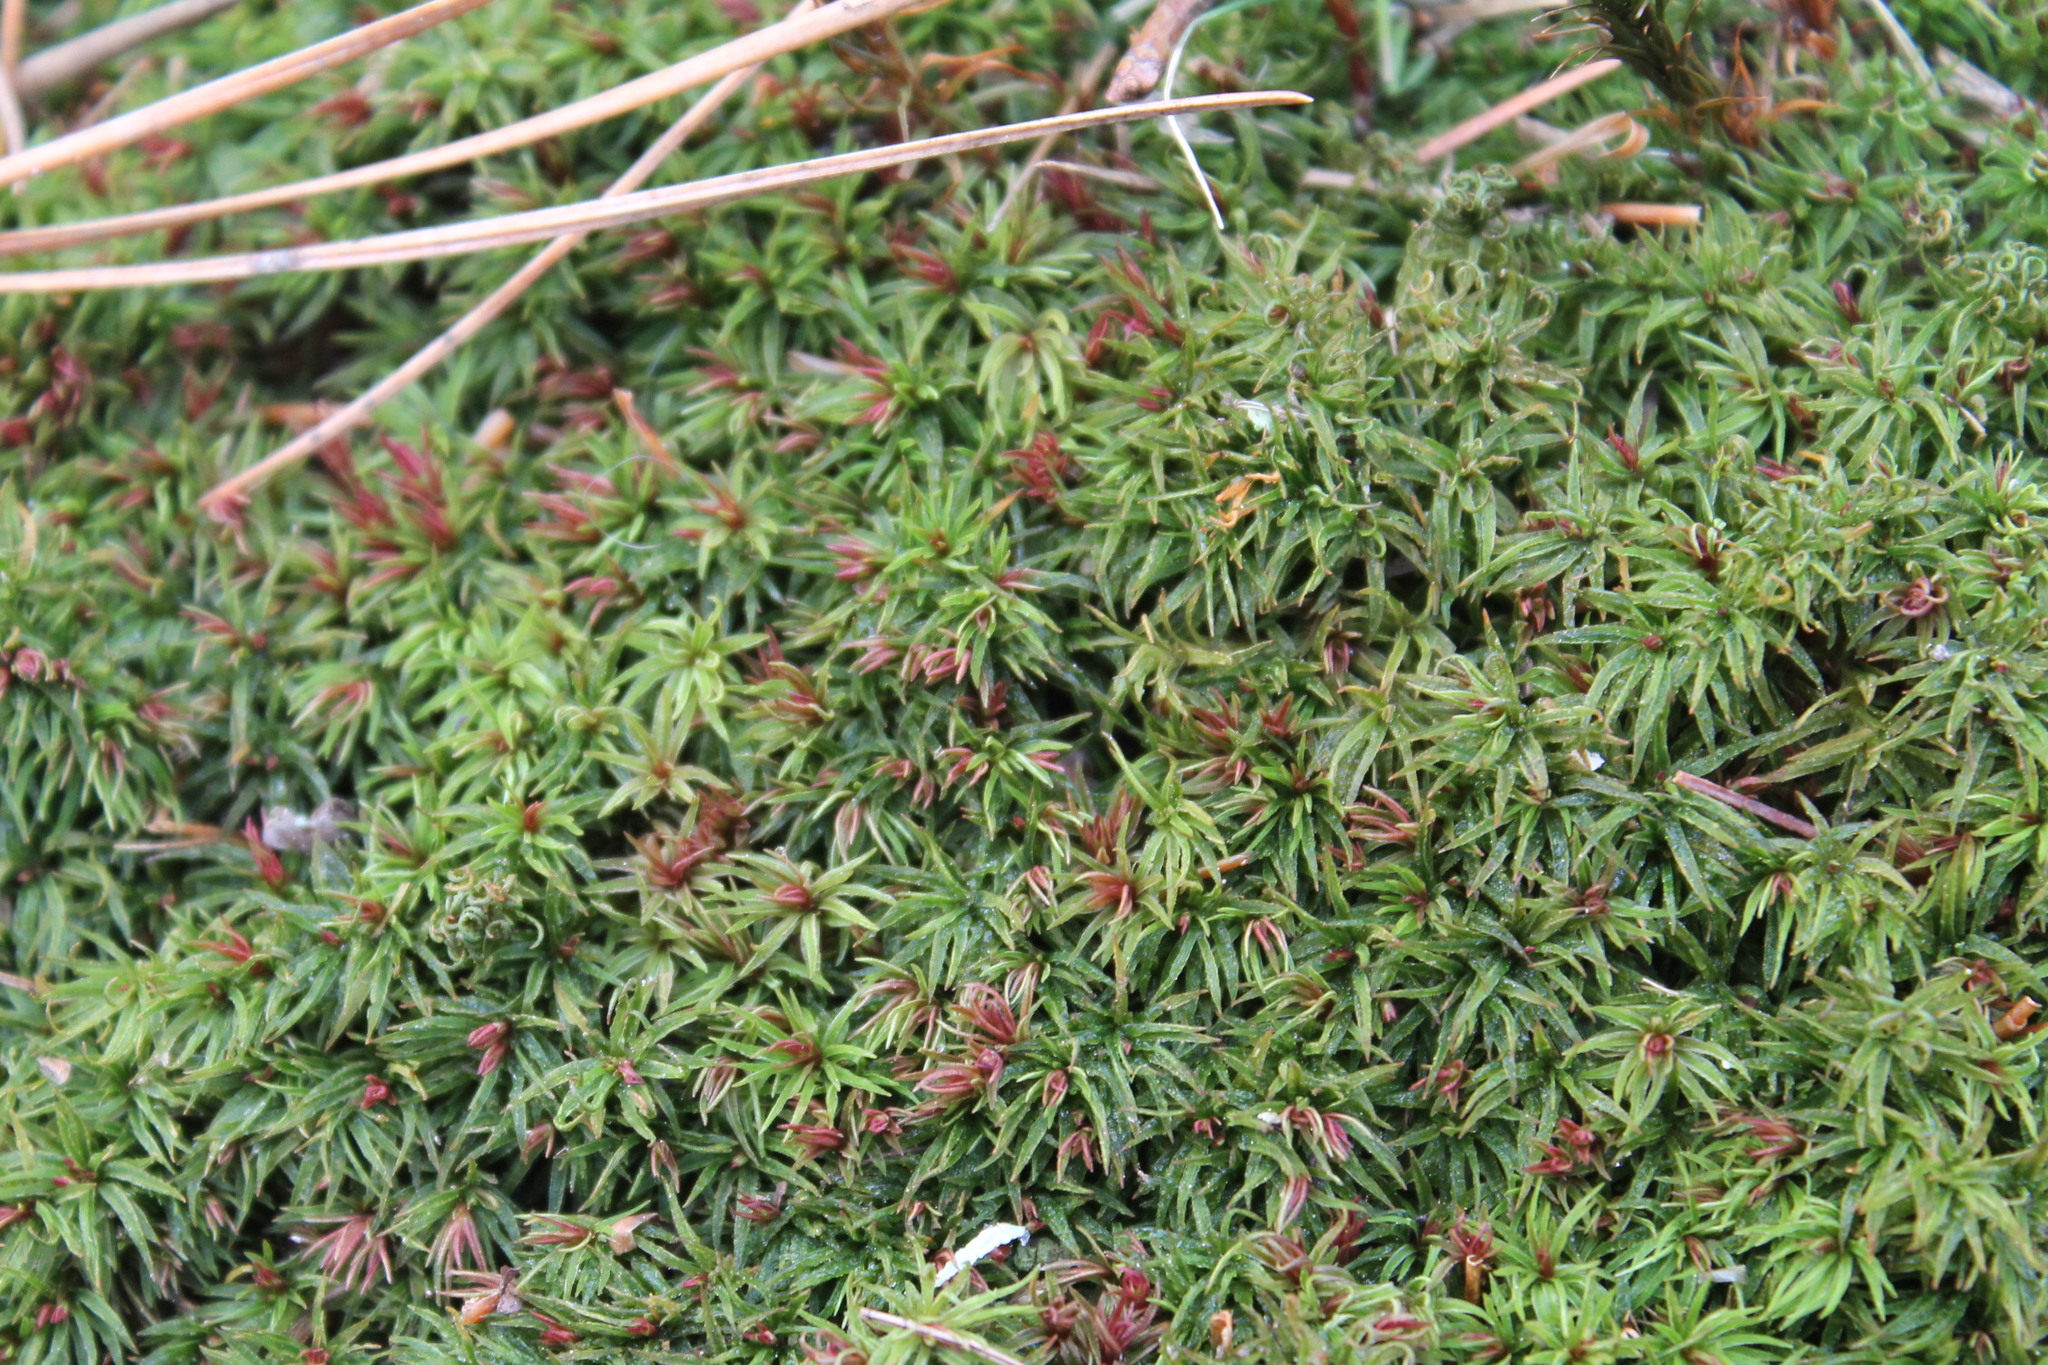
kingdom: Plantae
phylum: Bryophyta
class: Polytrichopsida
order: Polytrichales
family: Polytrichaceae
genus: Atrichum
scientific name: Atrichum angustatum
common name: Lesser smoothcap
